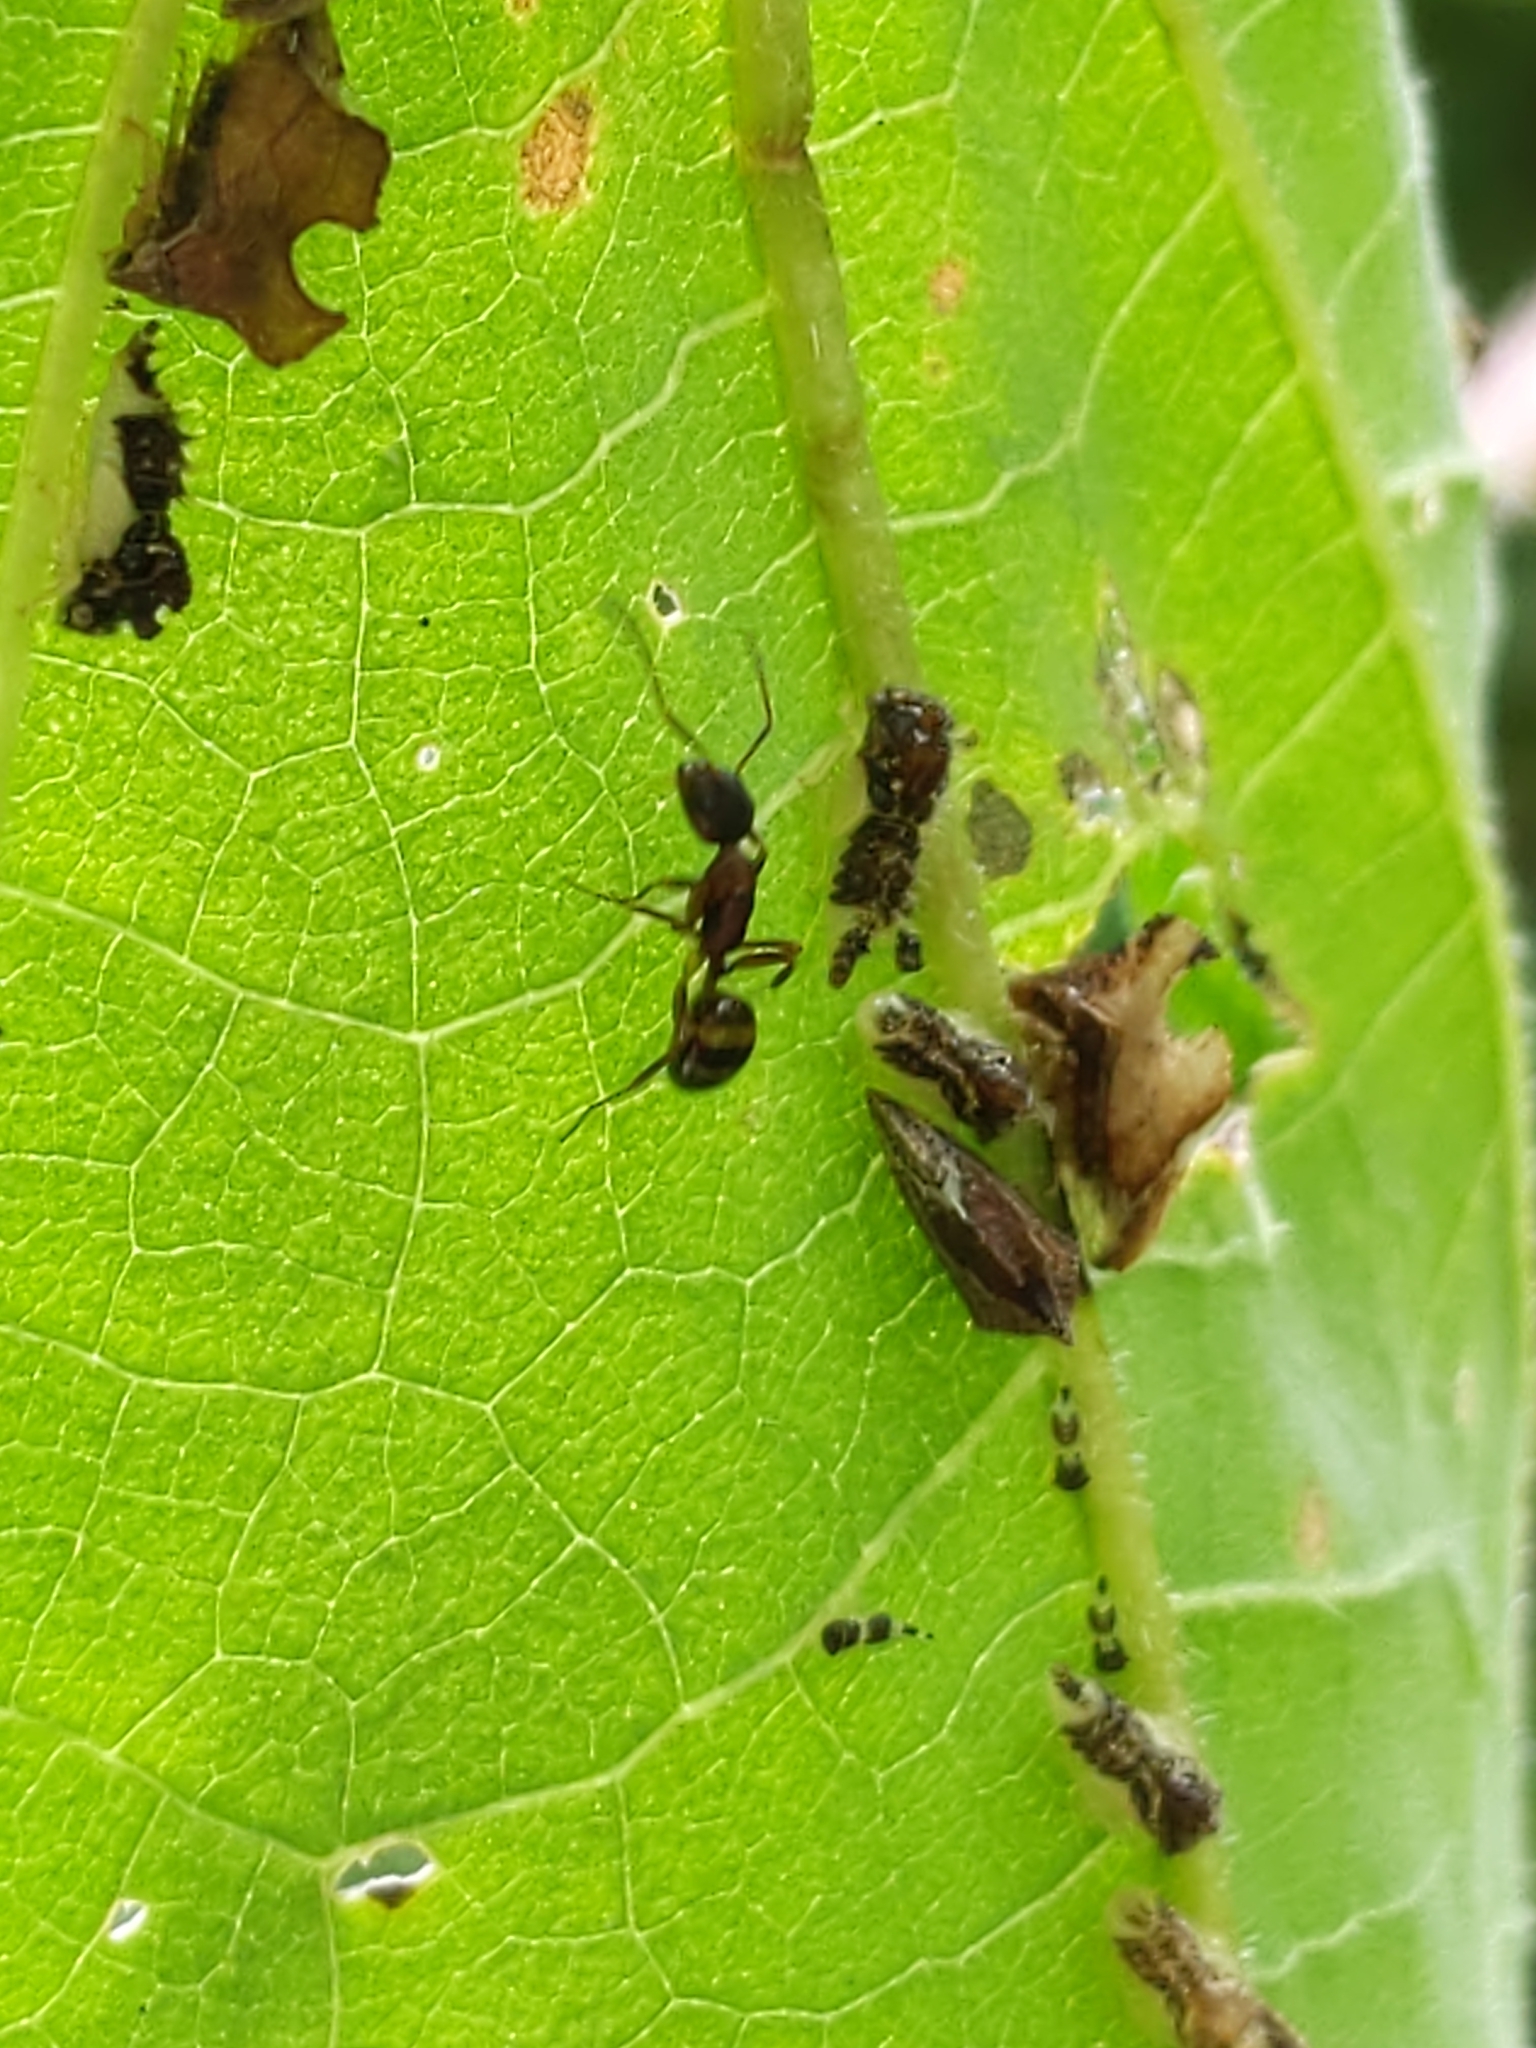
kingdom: Animalia
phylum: Arthropoda
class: Insecta
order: Hymenoptera
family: Formicidae
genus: Camponotus
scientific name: Camponotus subbarbatus
